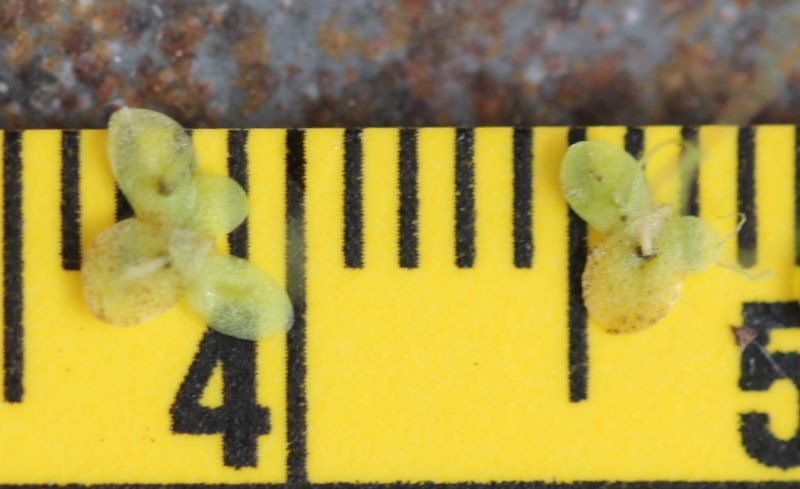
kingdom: Plantae
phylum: Tracheophyta
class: Liliopsida
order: Alismatales
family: Araceae
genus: Lemna
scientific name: Lemna minuta
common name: Least duckweed
